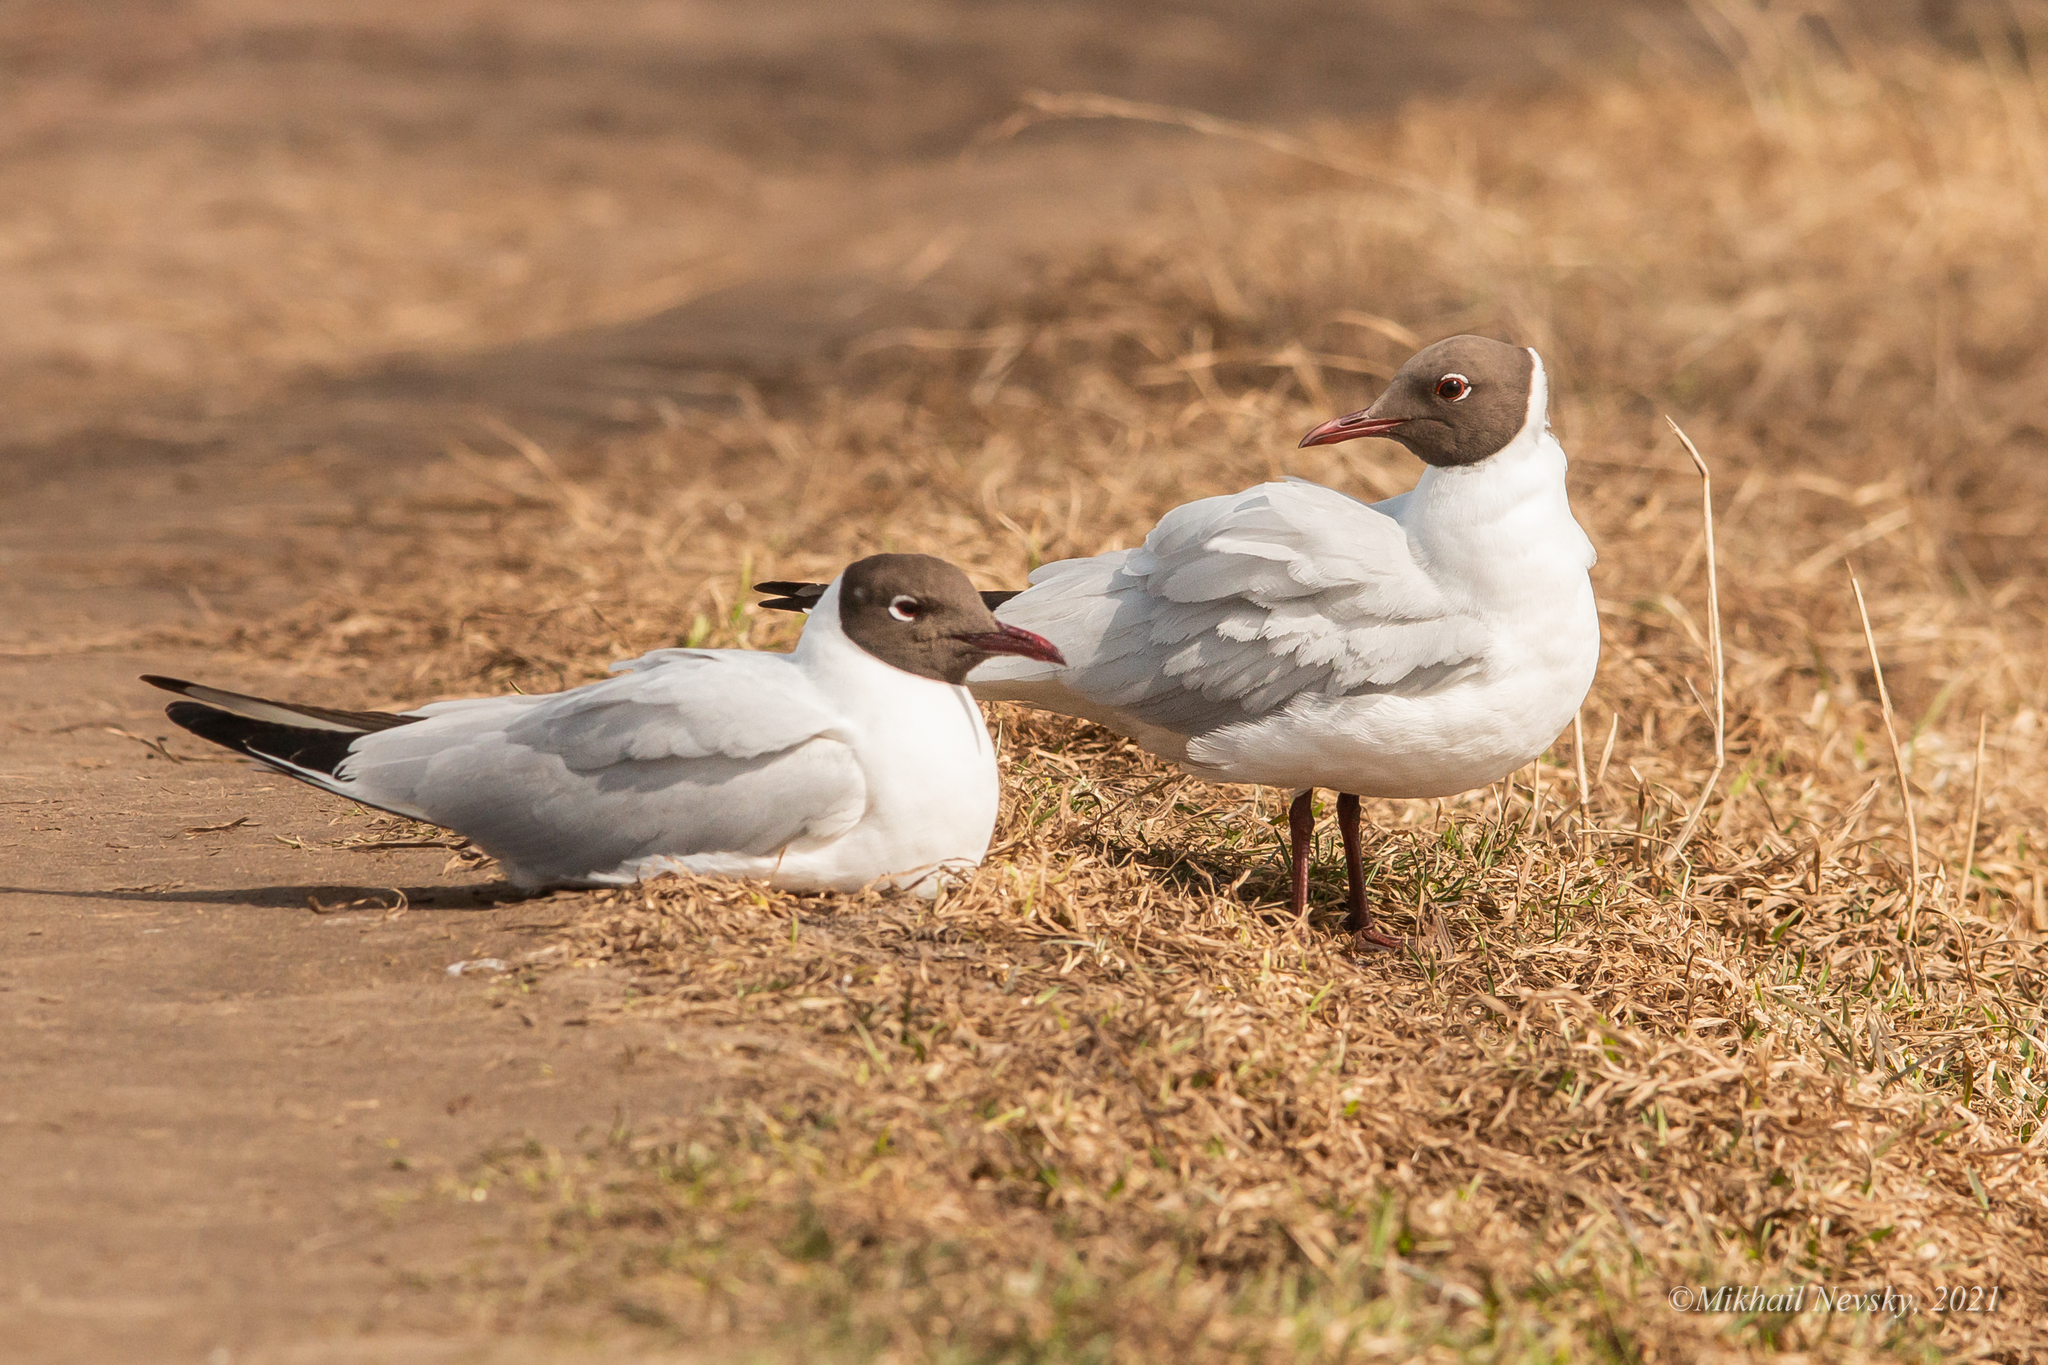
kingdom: Animalia
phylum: Chordata
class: Aves
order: Charadriiformes
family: Laridae
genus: Chroicocephalus
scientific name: Chroicocephalus ridibundus
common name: Black-headed gull
